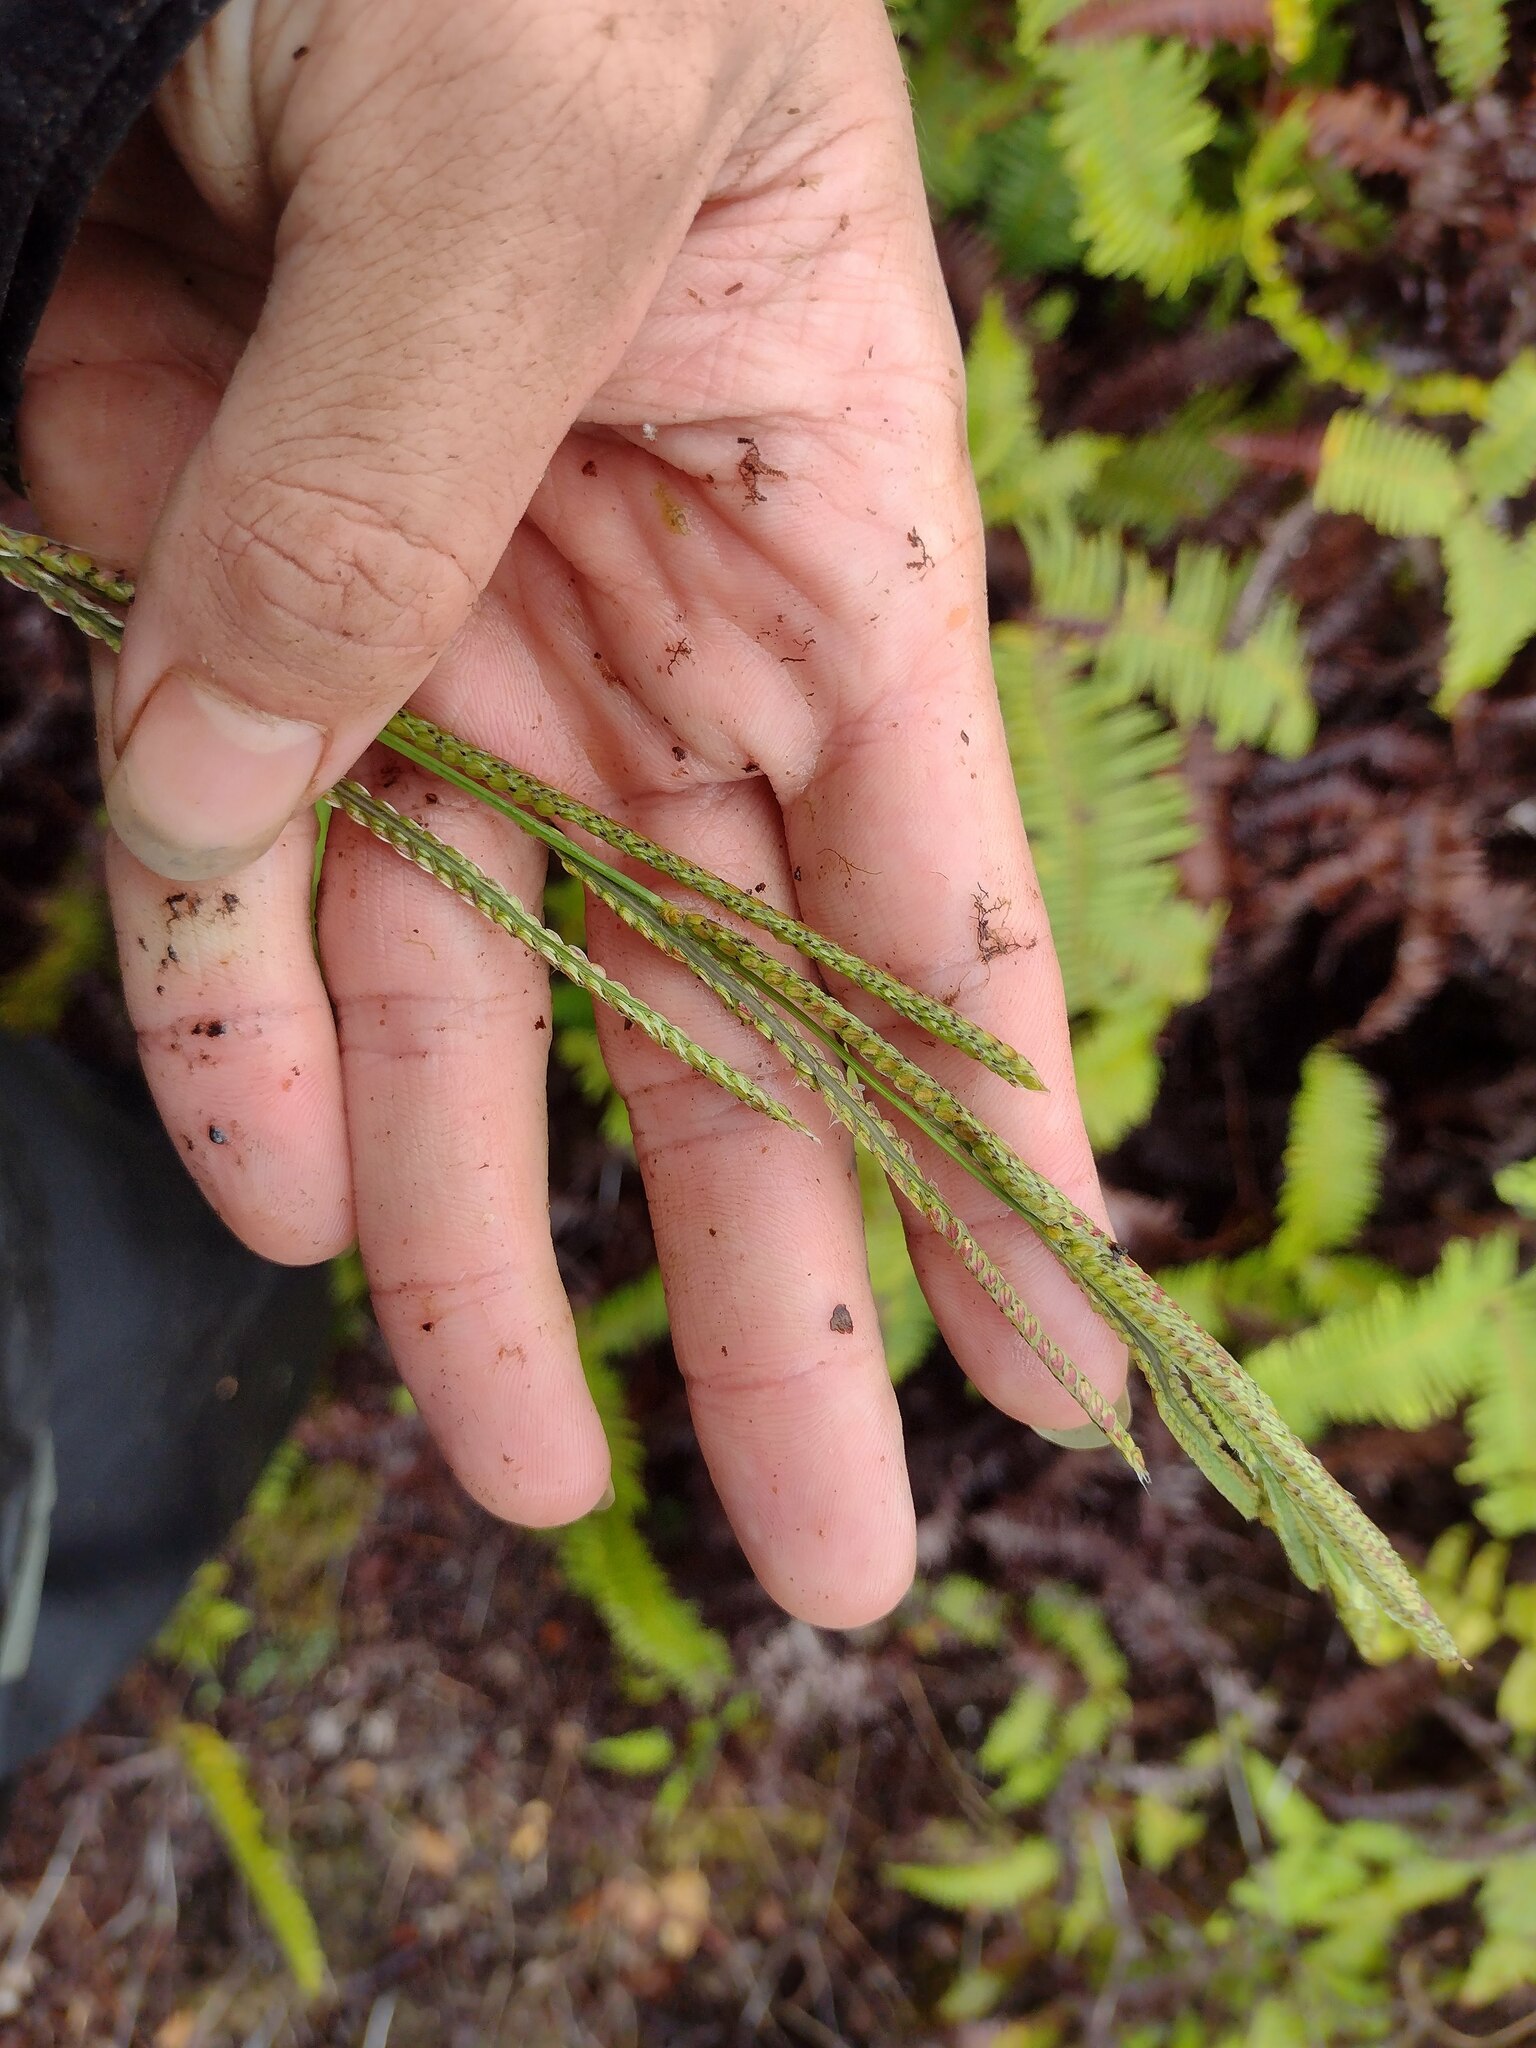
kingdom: Plantae
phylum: Tracheophyta
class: Liliopsida
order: Poales
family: Poaceae
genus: Paspalum
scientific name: Paspalum urvillei
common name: Vasey's grass
